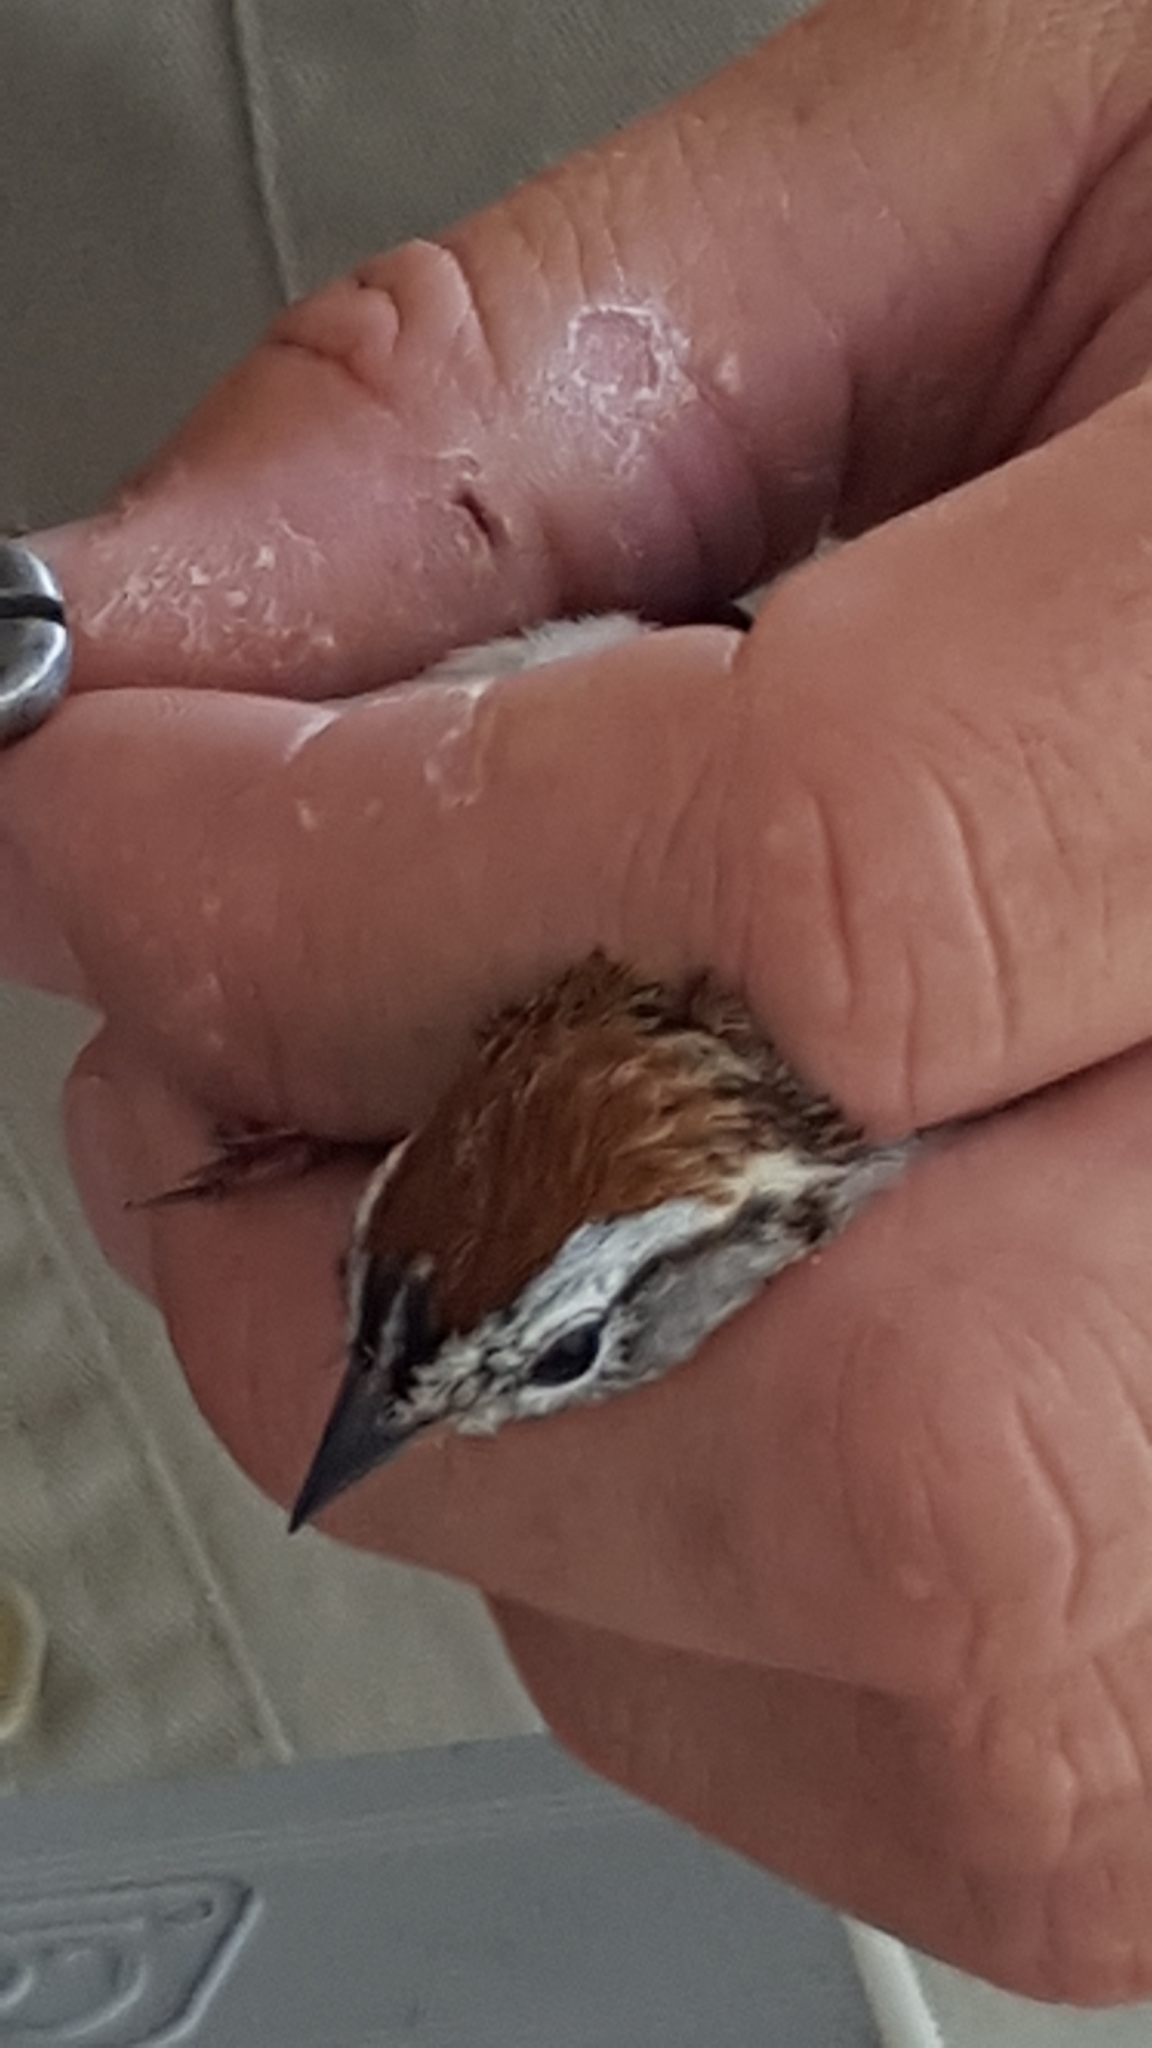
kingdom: Animalia
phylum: Chordata
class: Aves
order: Passeriformes
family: Passerellidae
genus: Spizella
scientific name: Spizella passerina
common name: Chipping sparrow
